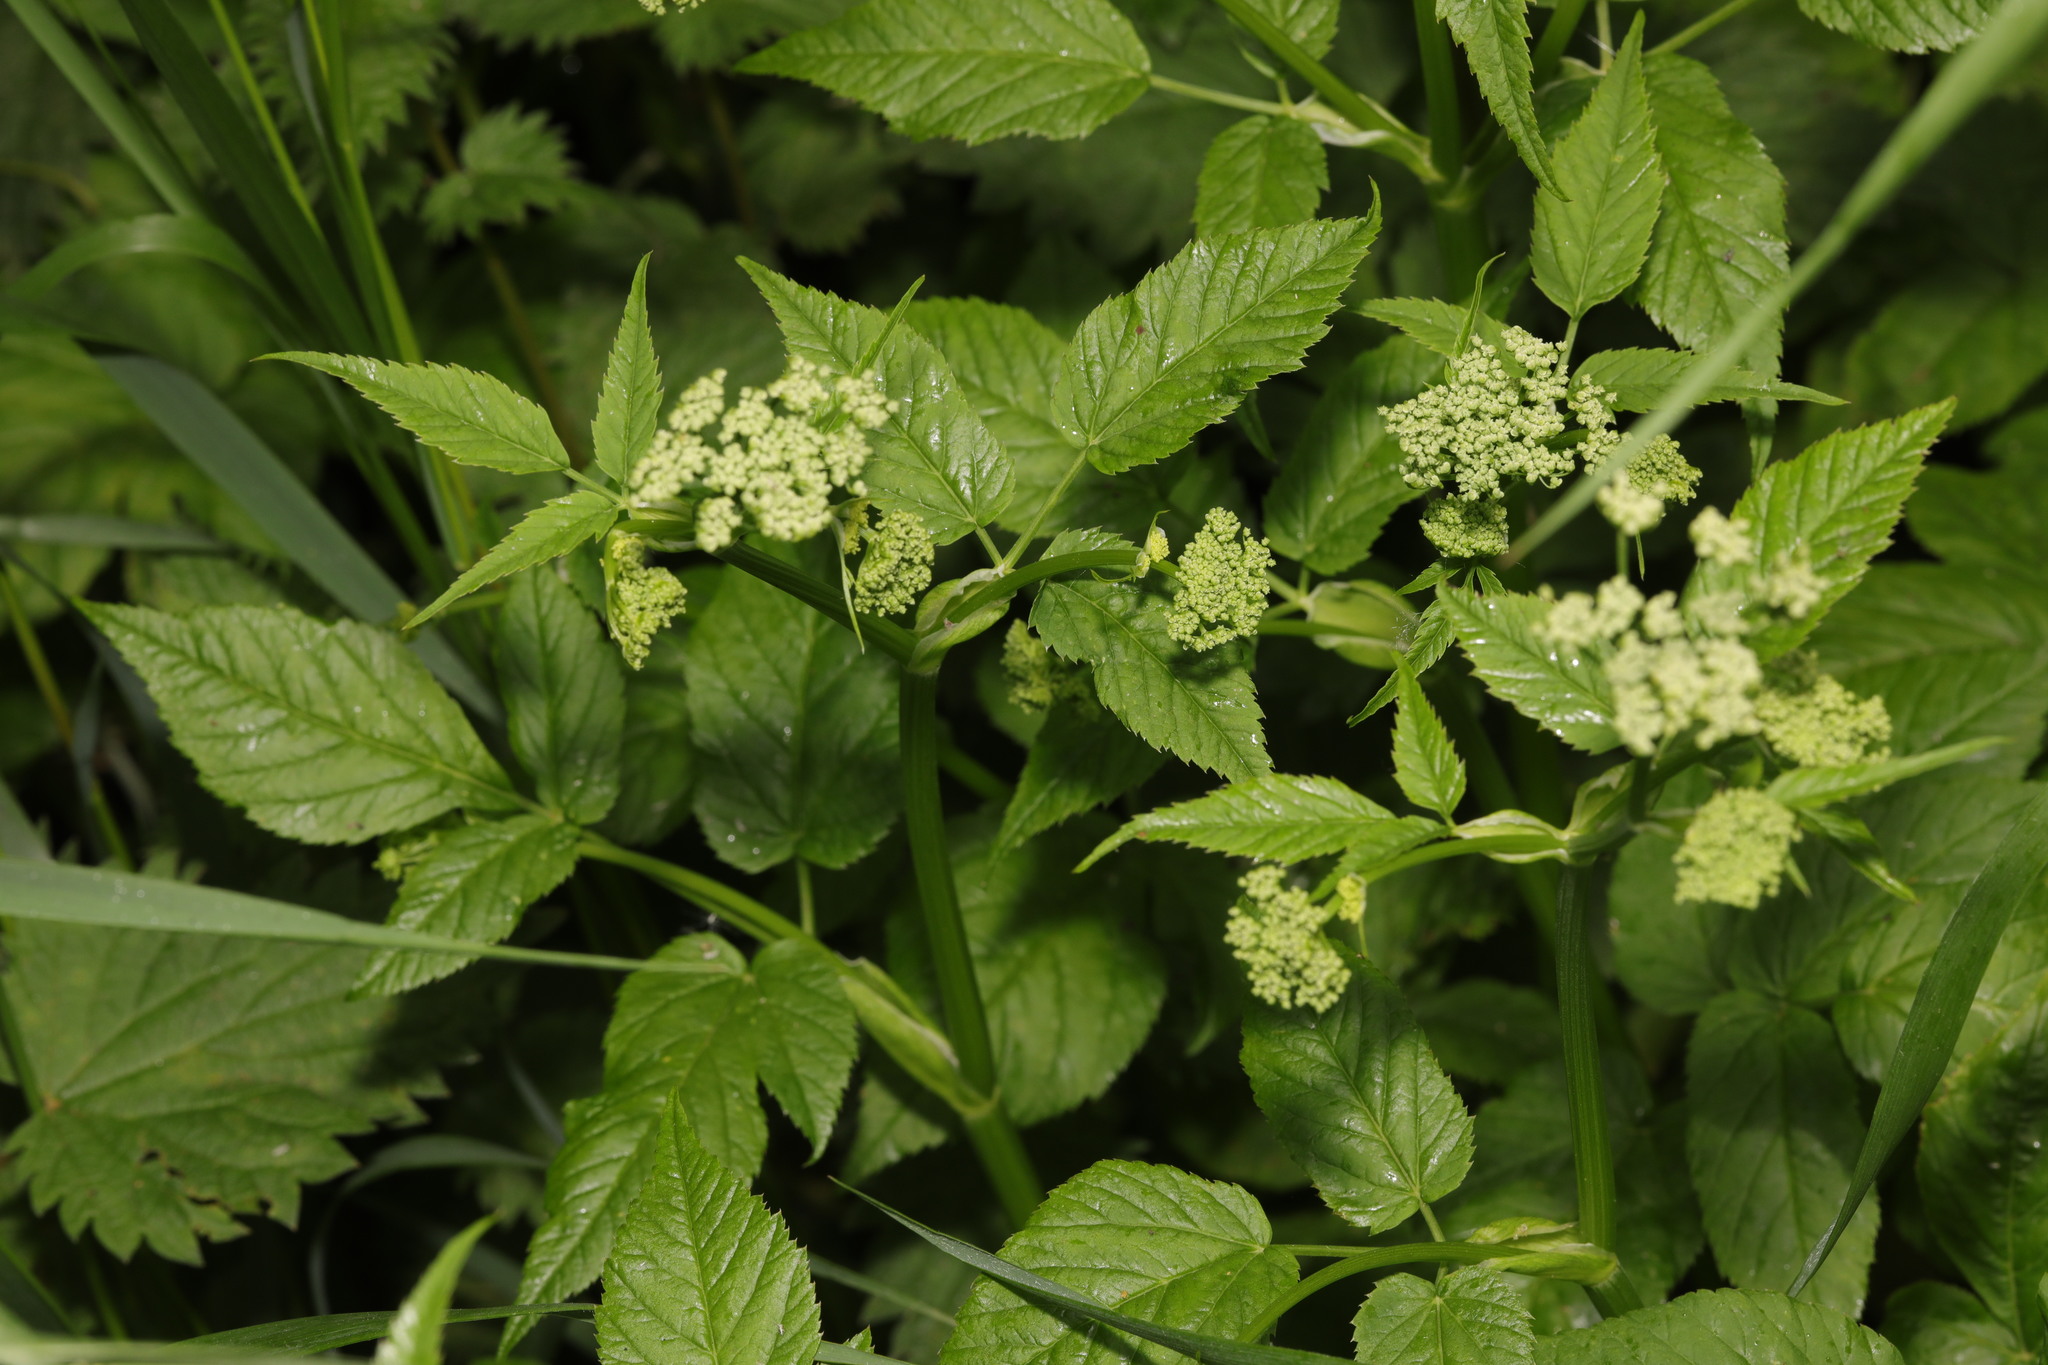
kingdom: Plantae
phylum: Tracheophyta
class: Magnoliopsida
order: Apiales
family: Apiaceae
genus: Aegopodium
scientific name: Aegopodium podagraria
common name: Ground-elder
